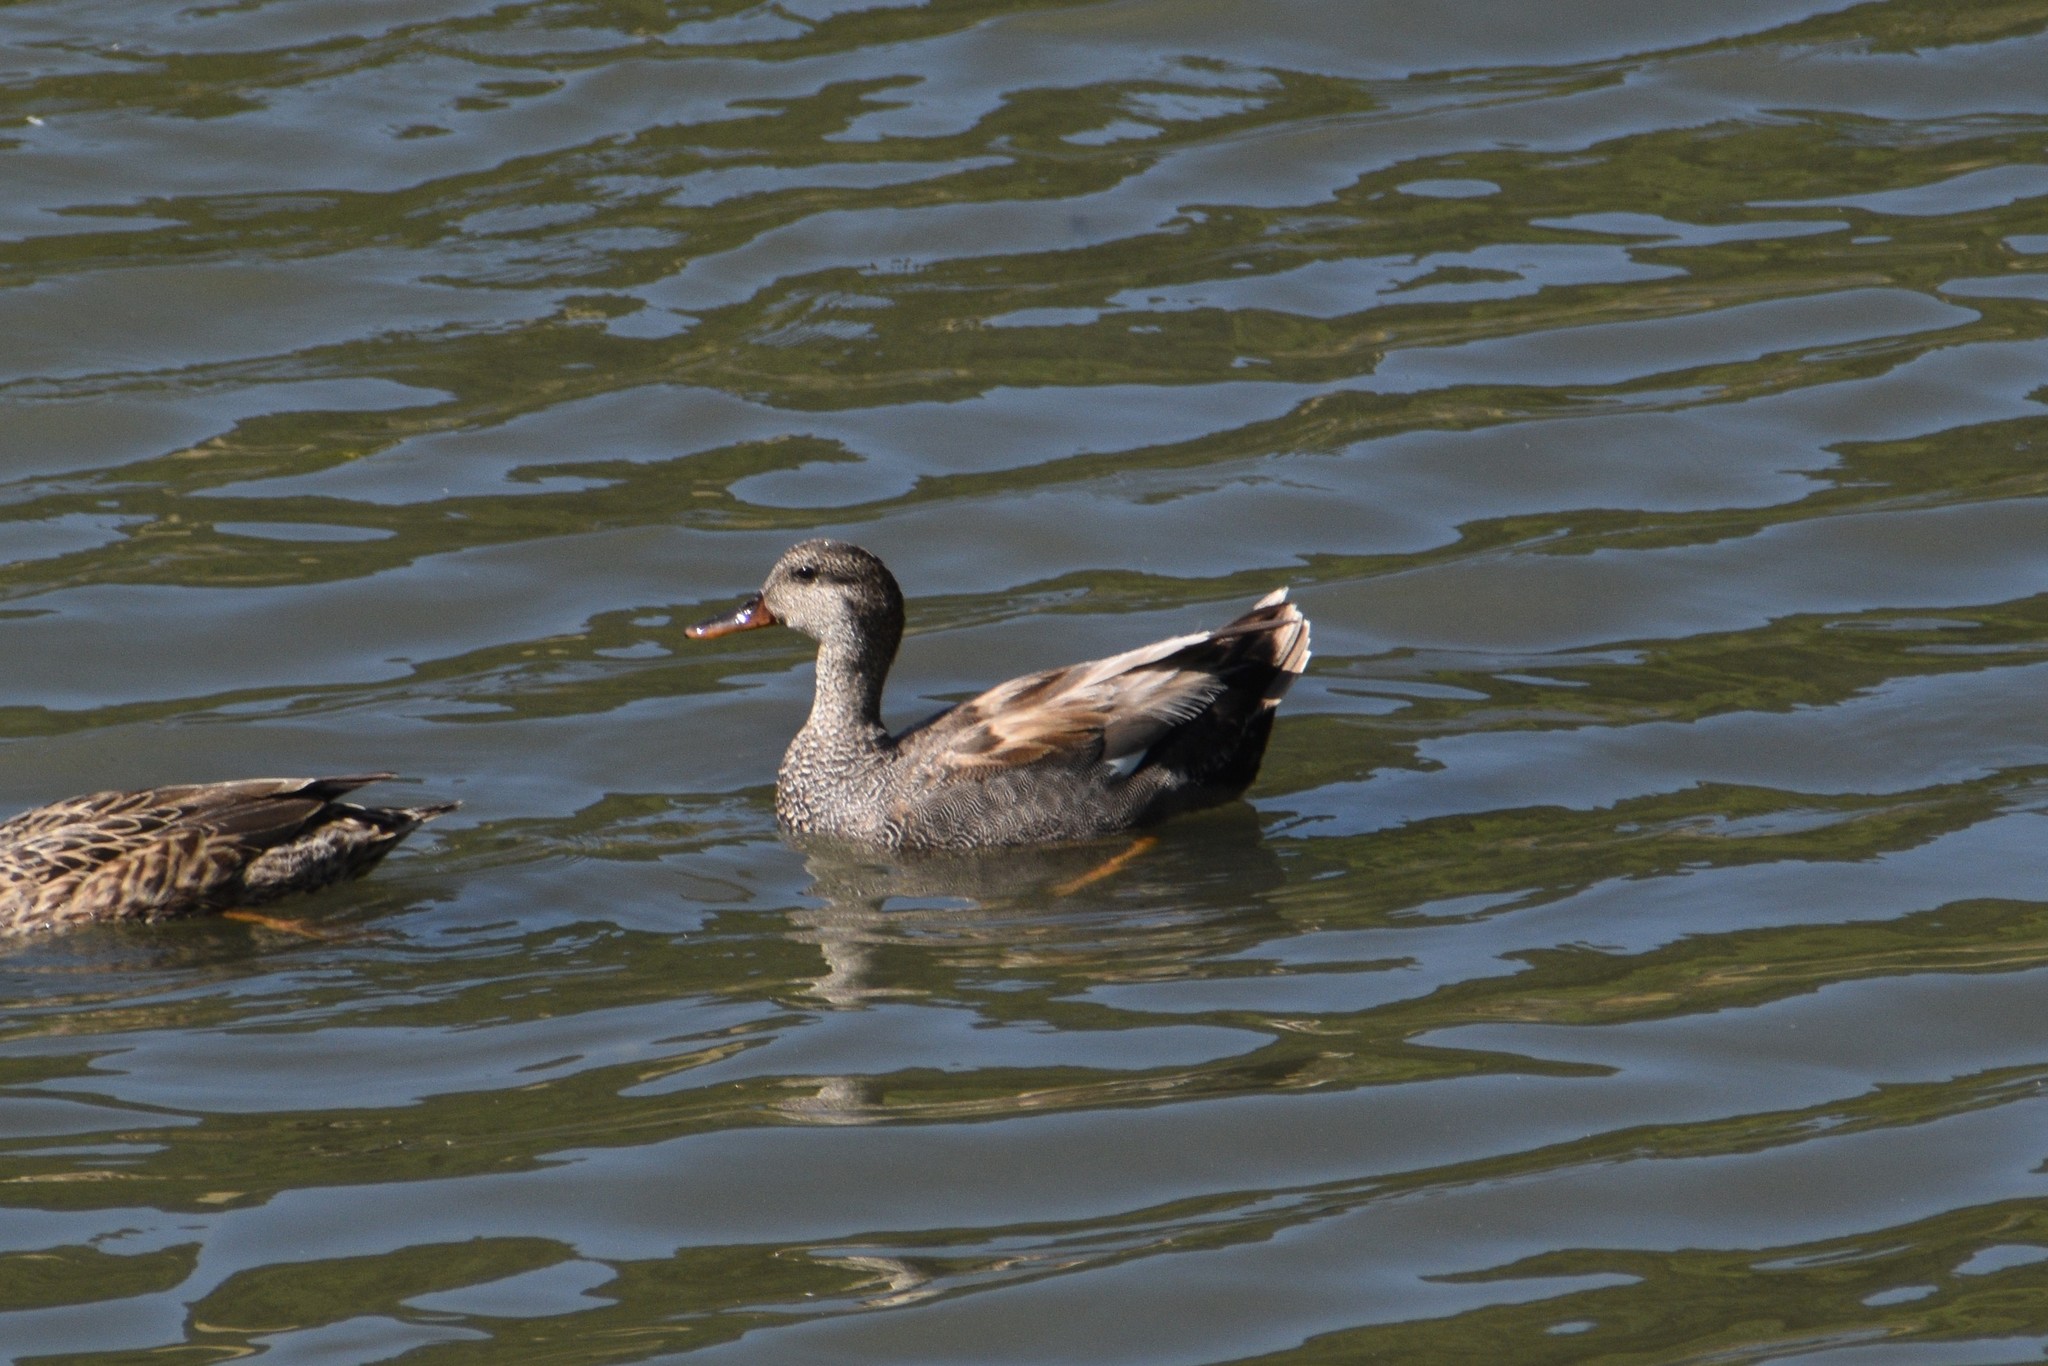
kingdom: Animalia
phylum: Chordata
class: Aves
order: Anseriformes
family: Anatidae
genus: Mareca
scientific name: Mareca strepera
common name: Gadwall
